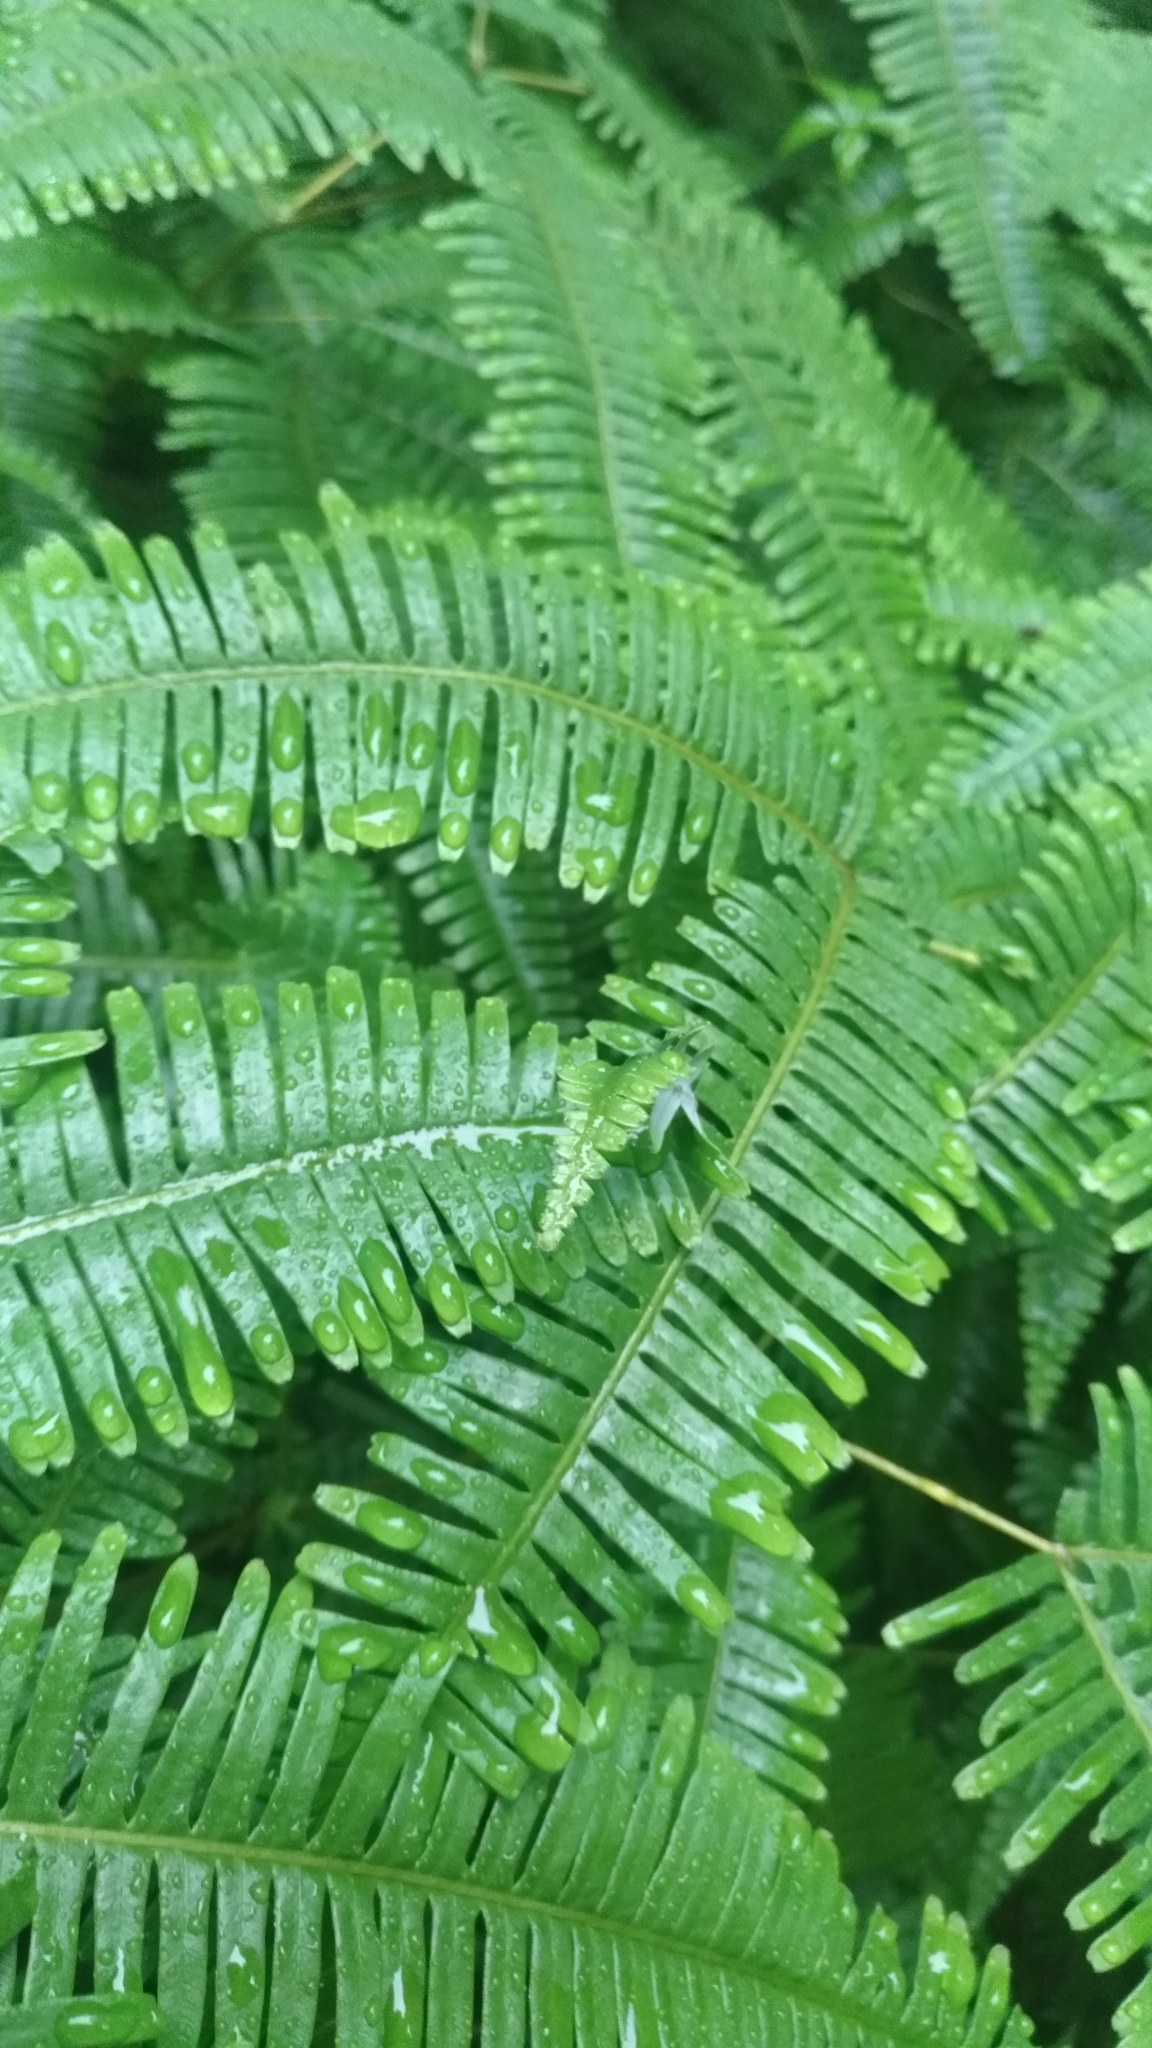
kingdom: Plantae
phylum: Tracheophyta
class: Polypodiopsida
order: Gleicheniales
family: Gleicheniaceae
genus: Dicranopteris
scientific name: Dicranopteris linearis
